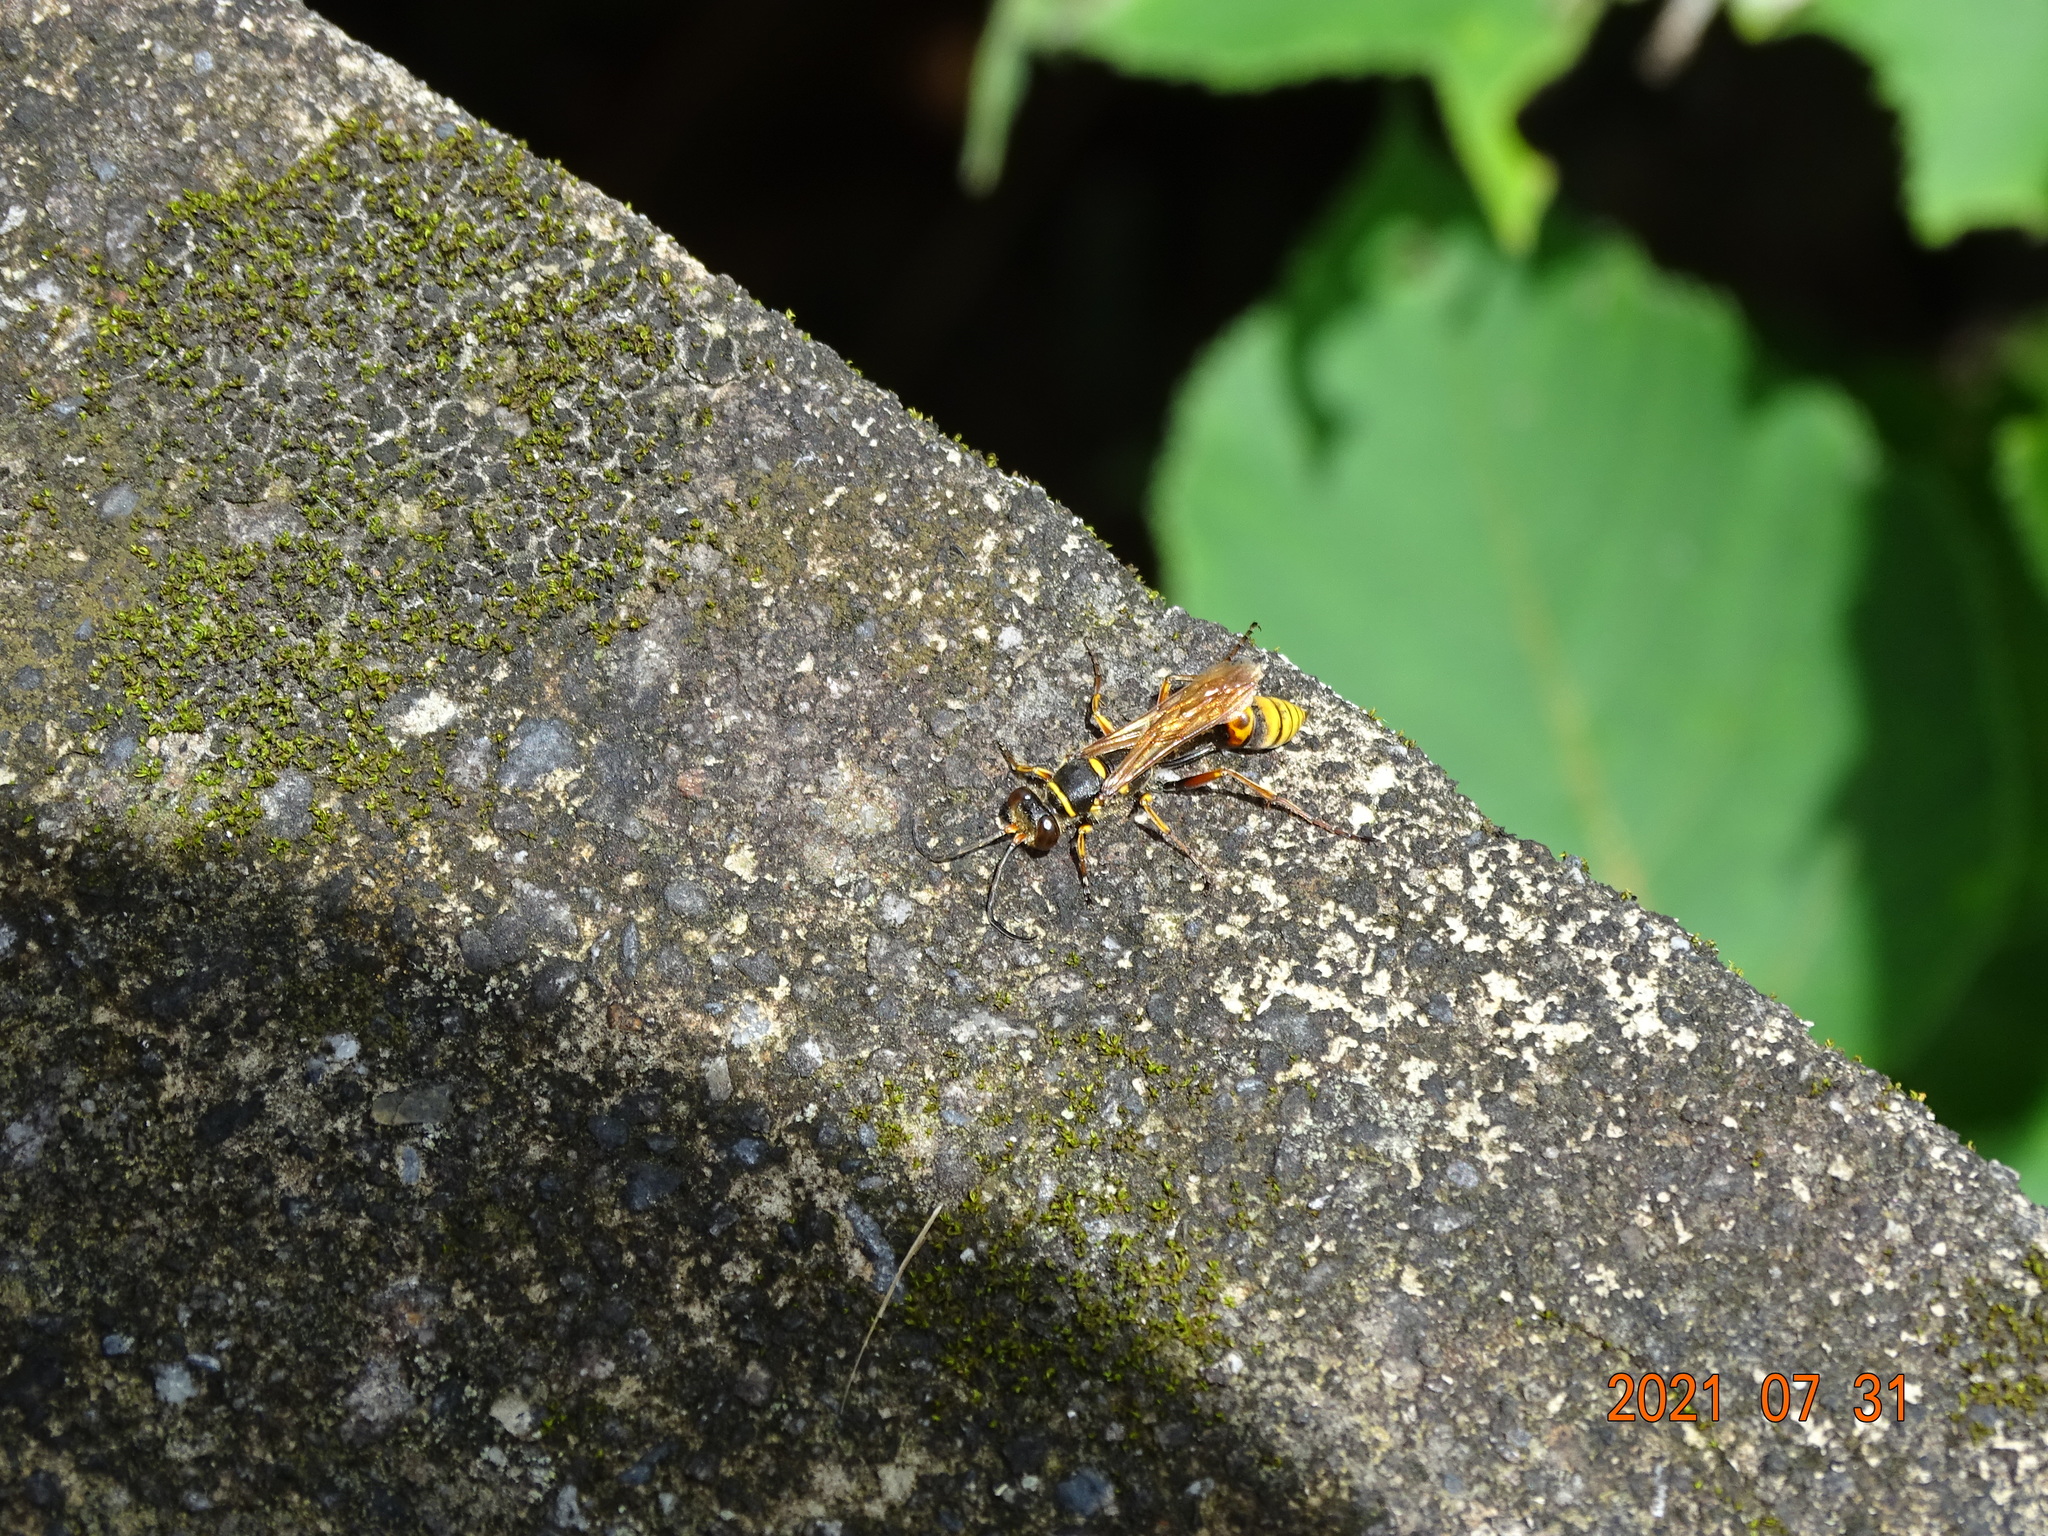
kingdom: Animalia
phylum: Arthropoda
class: Insecta
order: Hymenoptera
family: Sphecidae
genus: Sceliphron
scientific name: Sceliphron deforme
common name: Pelopèe
